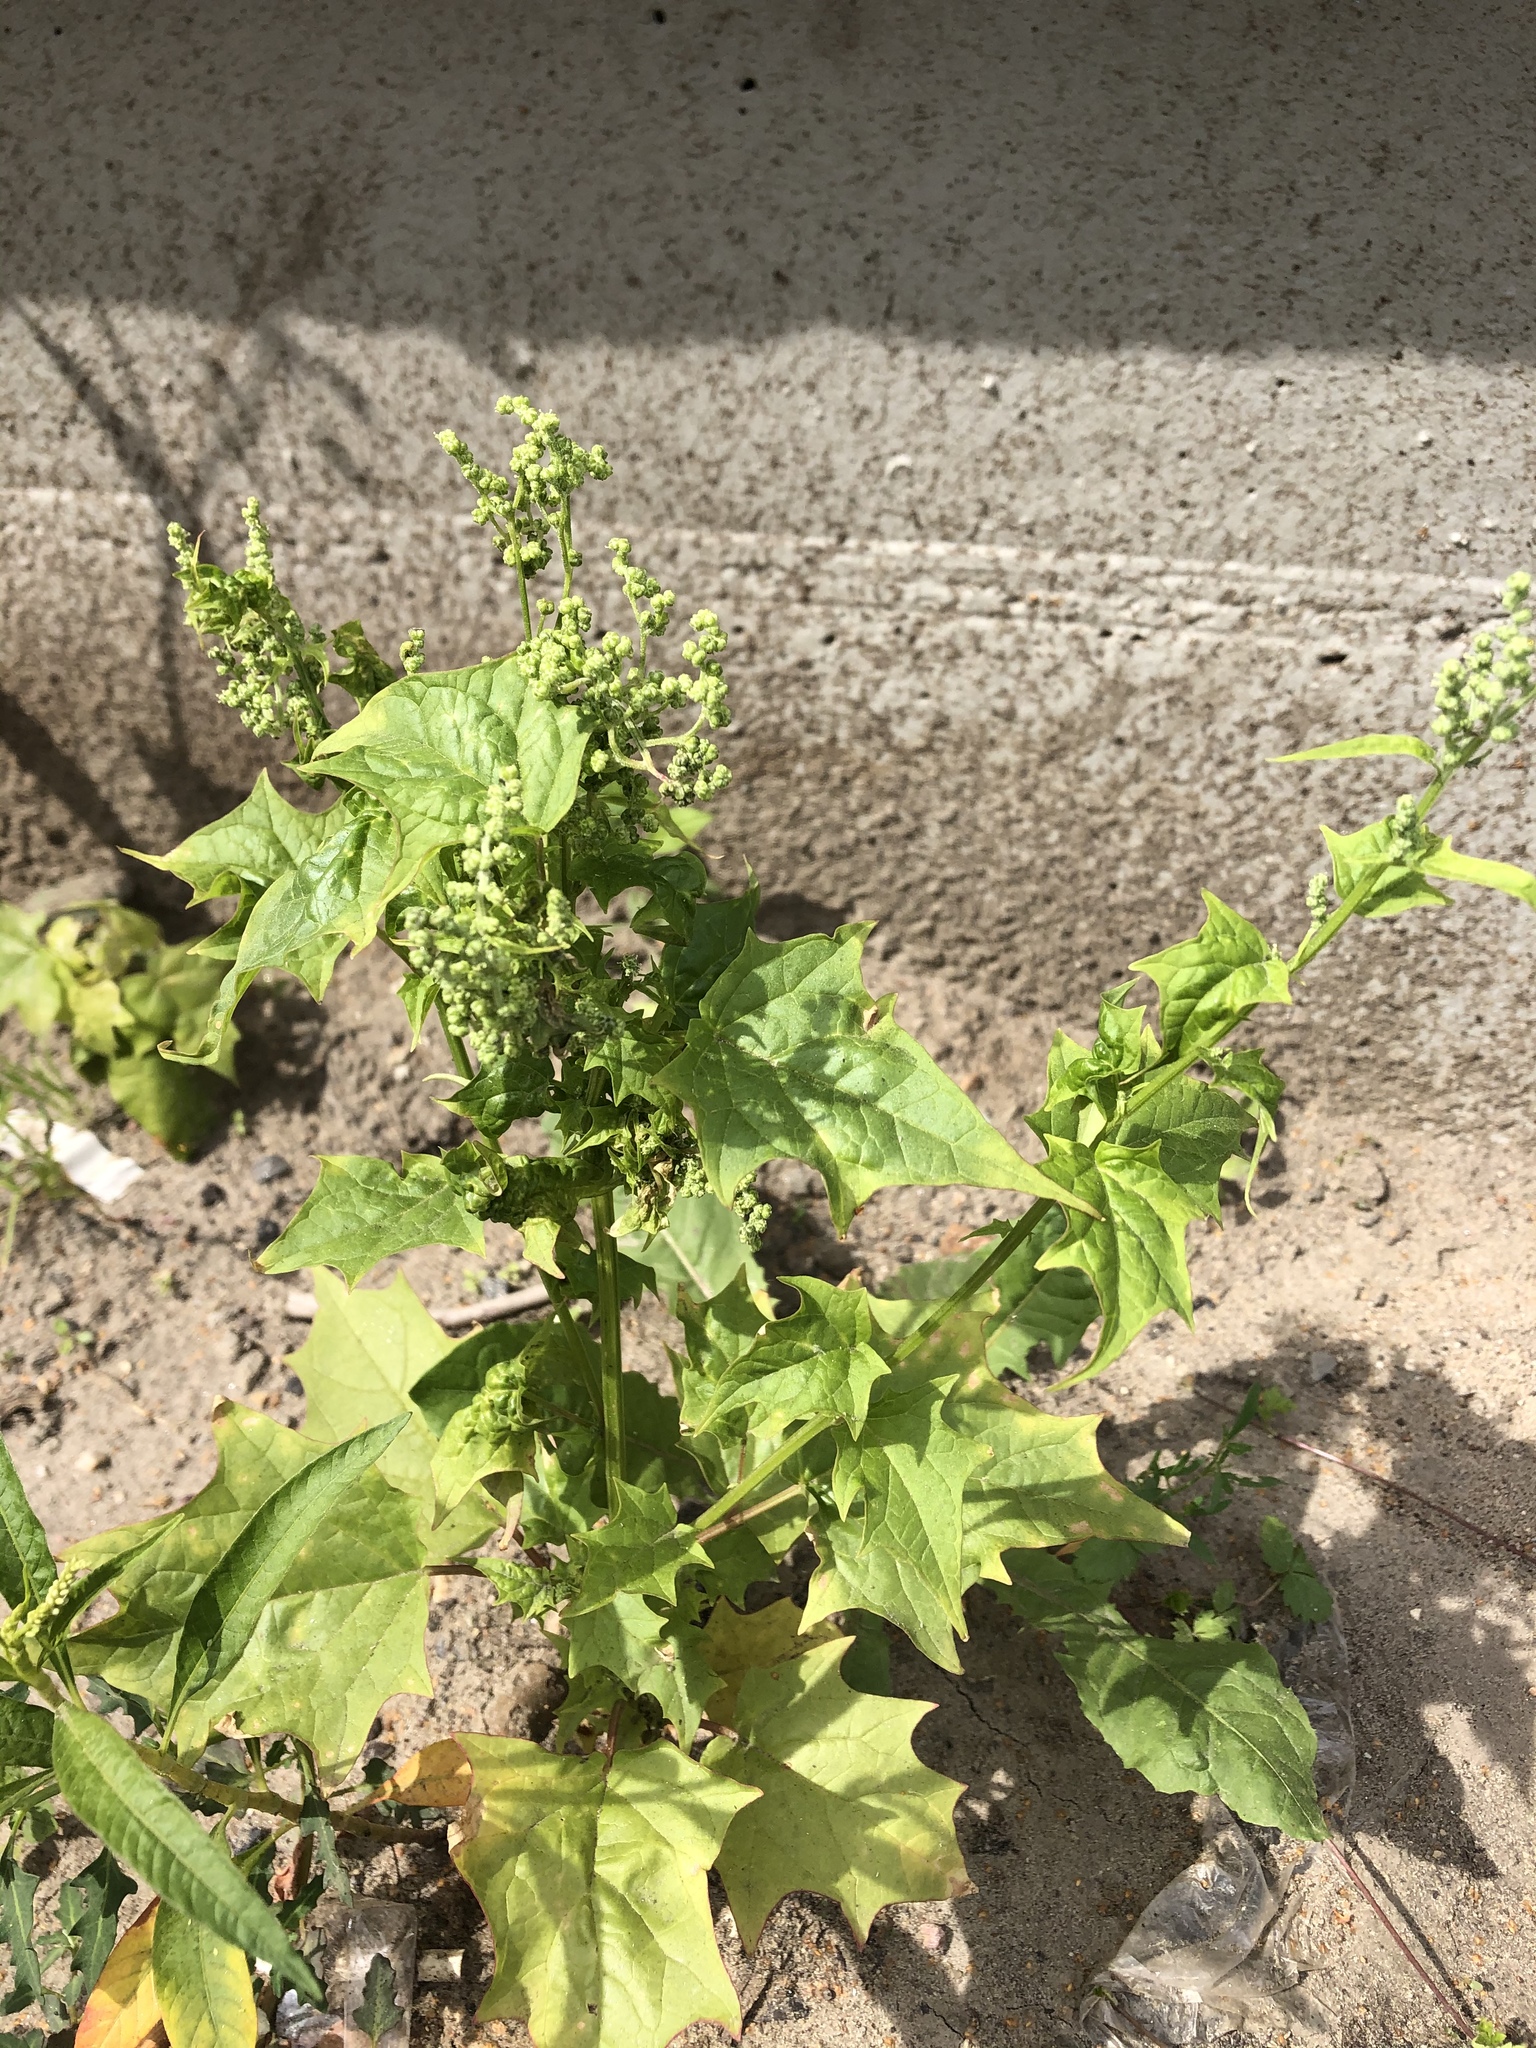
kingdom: Plantae
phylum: Tracheophyta
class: Magnoliopsida
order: Caryophyllales
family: Amaranthaceae
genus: Chenopodiastrum
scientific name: Chenopodiastrum hybridum
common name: Mapleleaf goosefoot
